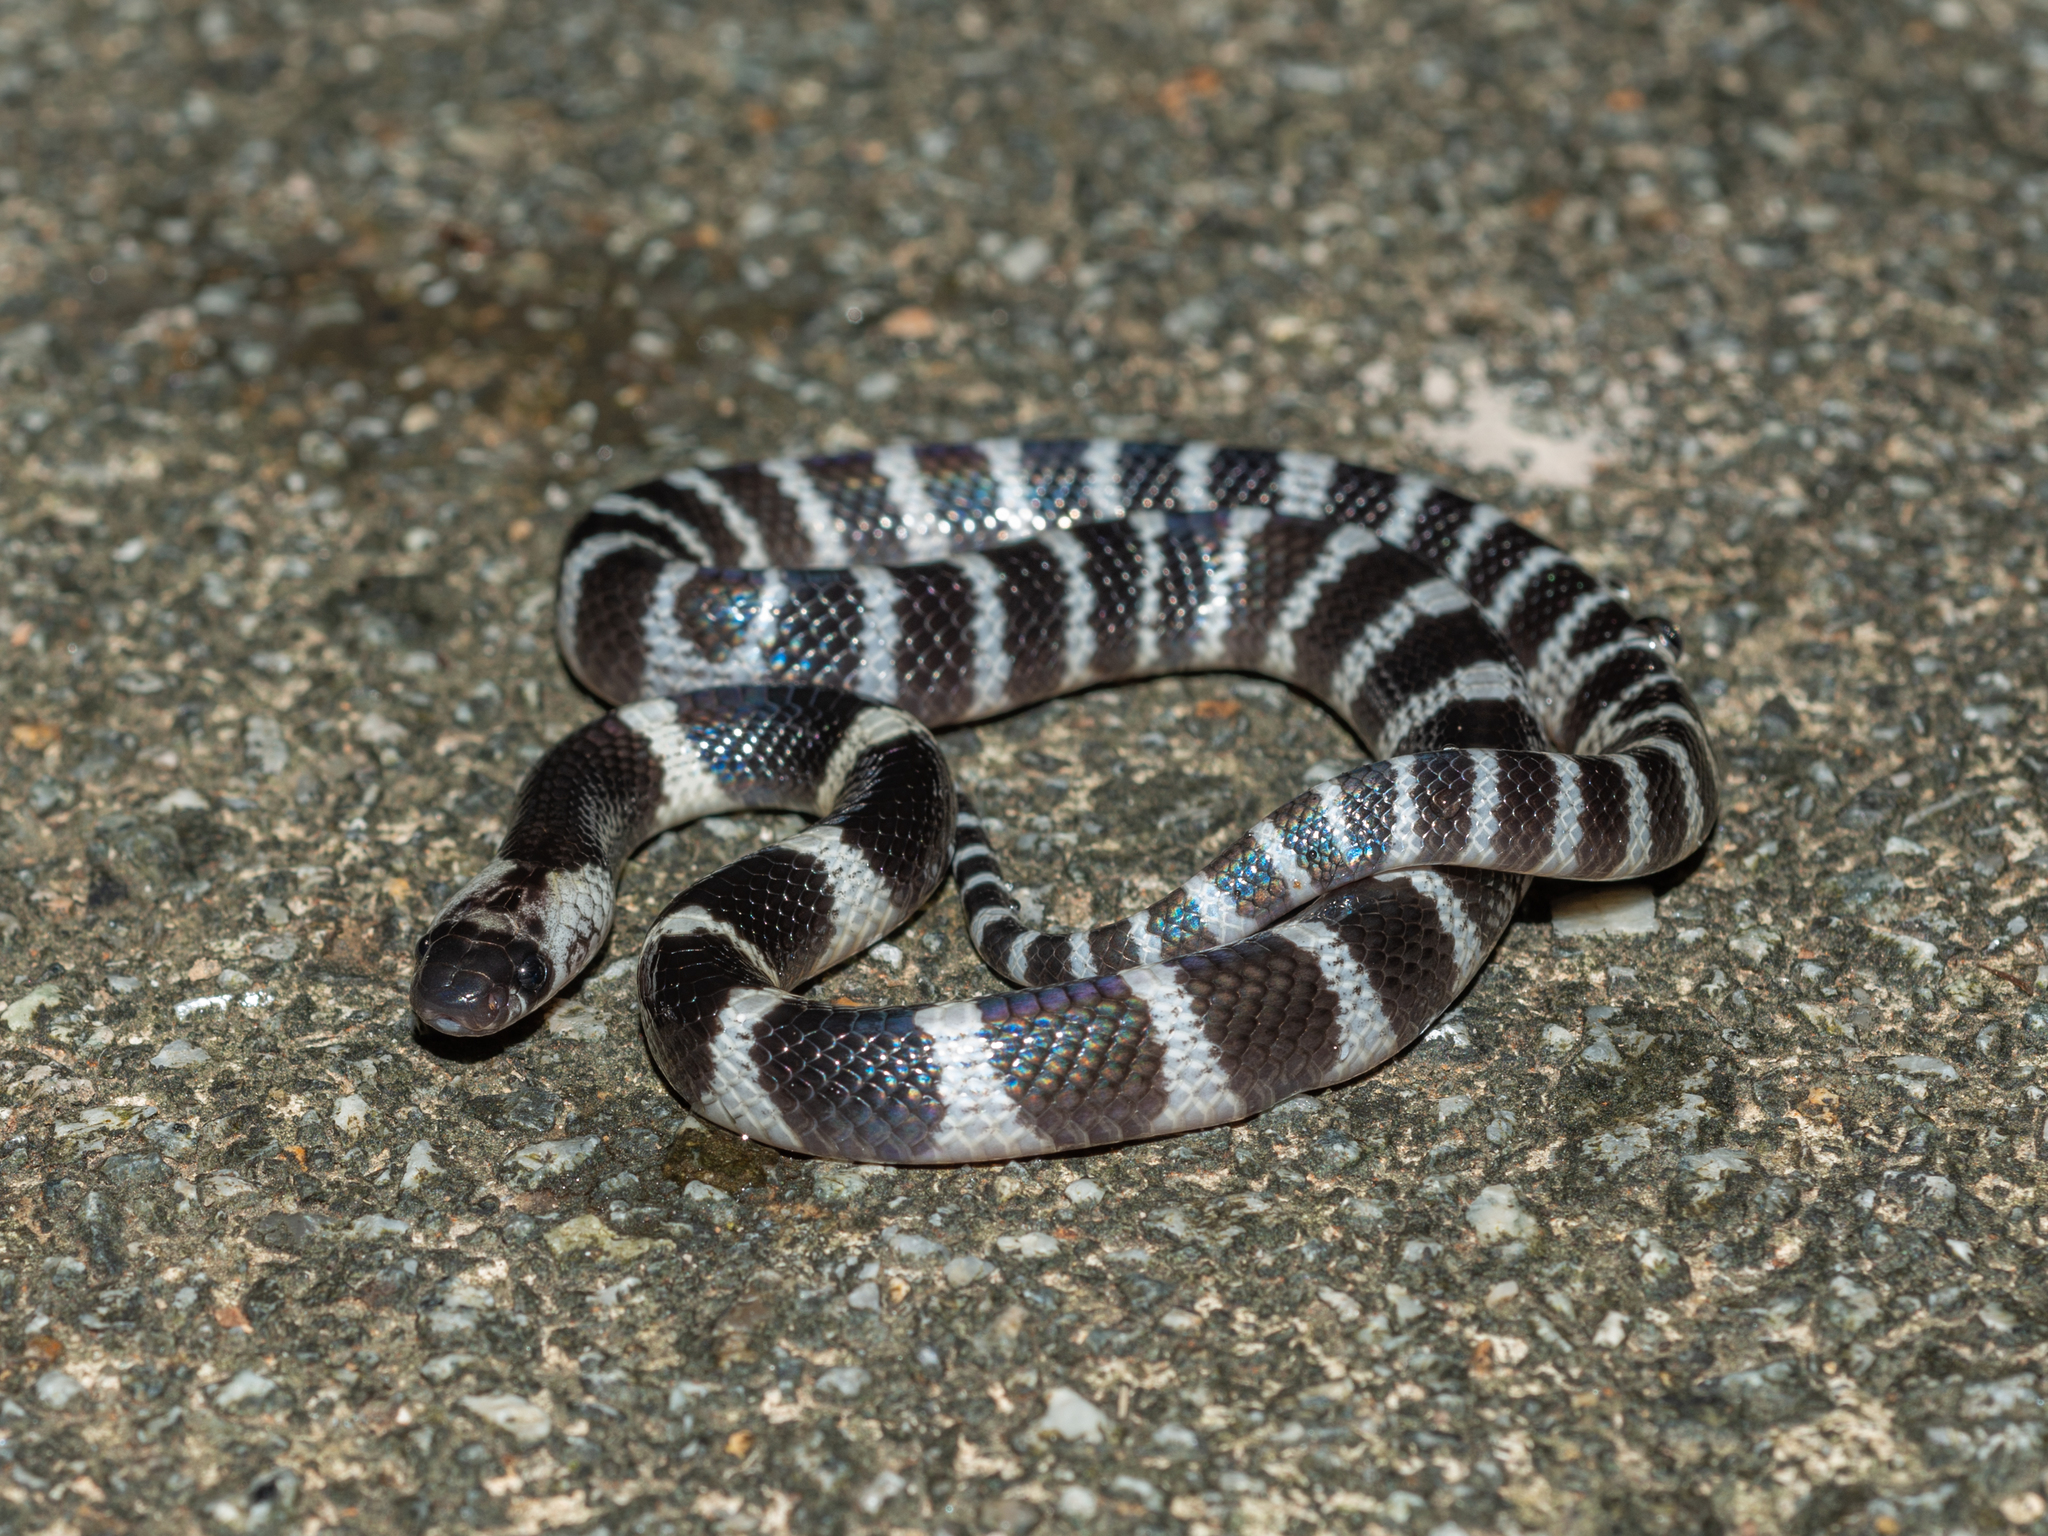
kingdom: Animalia
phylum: Chordata
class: Squamata
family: Elapidae
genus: Bungarus
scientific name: Bungarus multicinctus
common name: Many-banded krait
